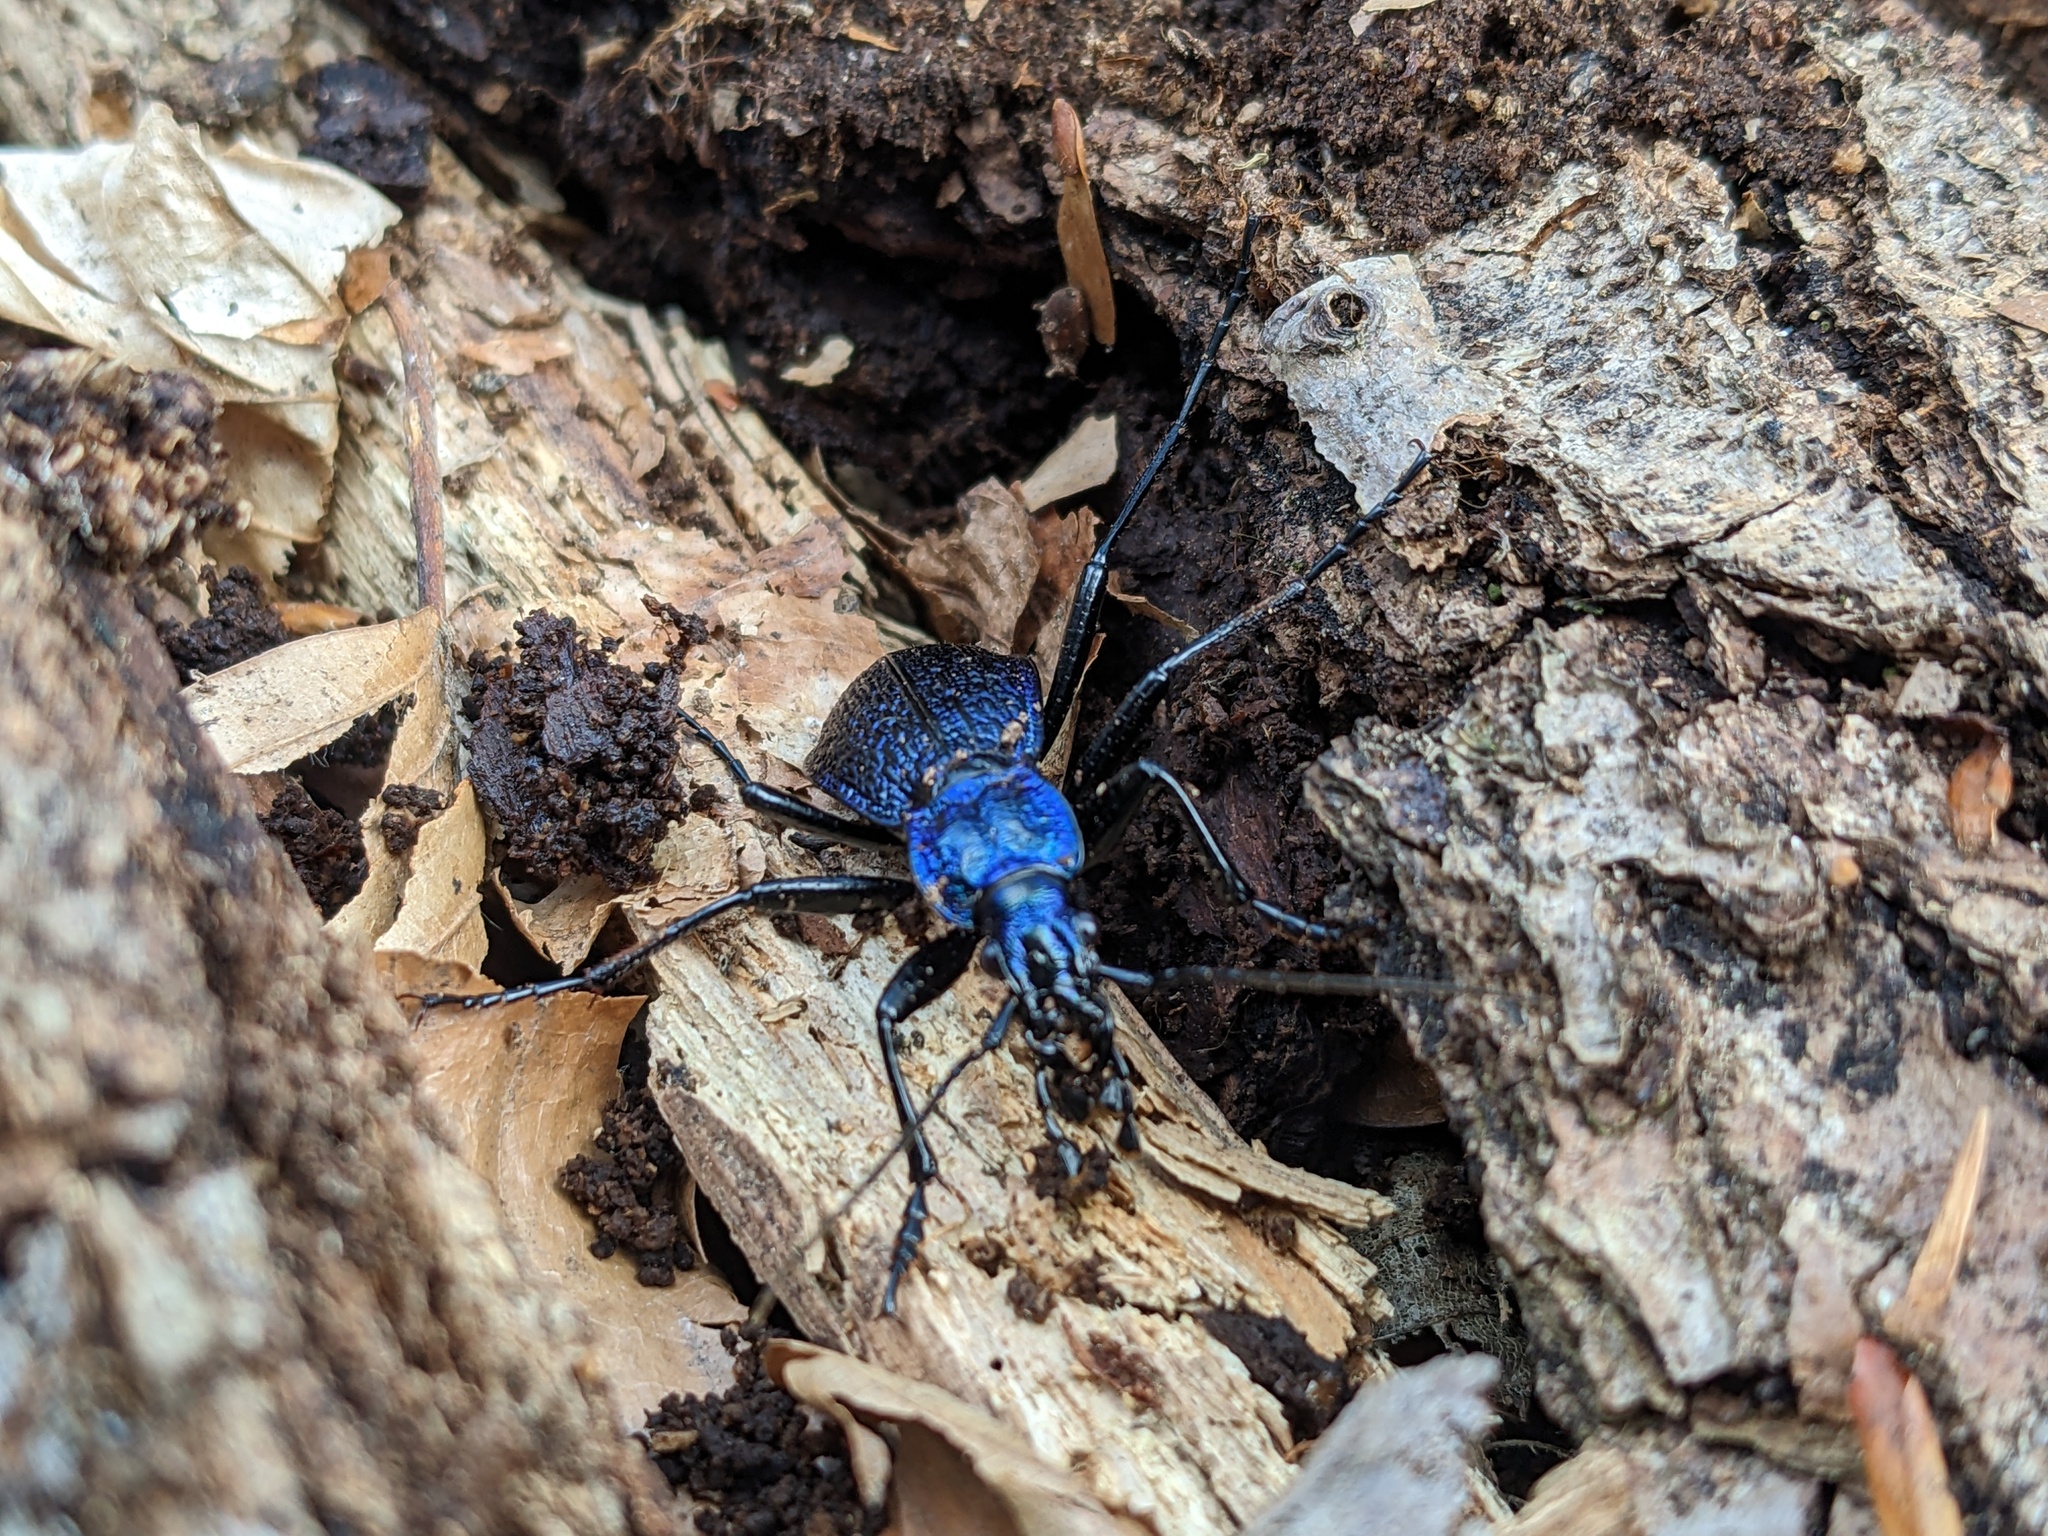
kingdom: Animalia
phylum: Arthropoda
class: Insecta
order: Coleoptera
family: Carabidae
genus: Carabus
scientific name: Carabus intricatus
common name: Blue ground beetle
